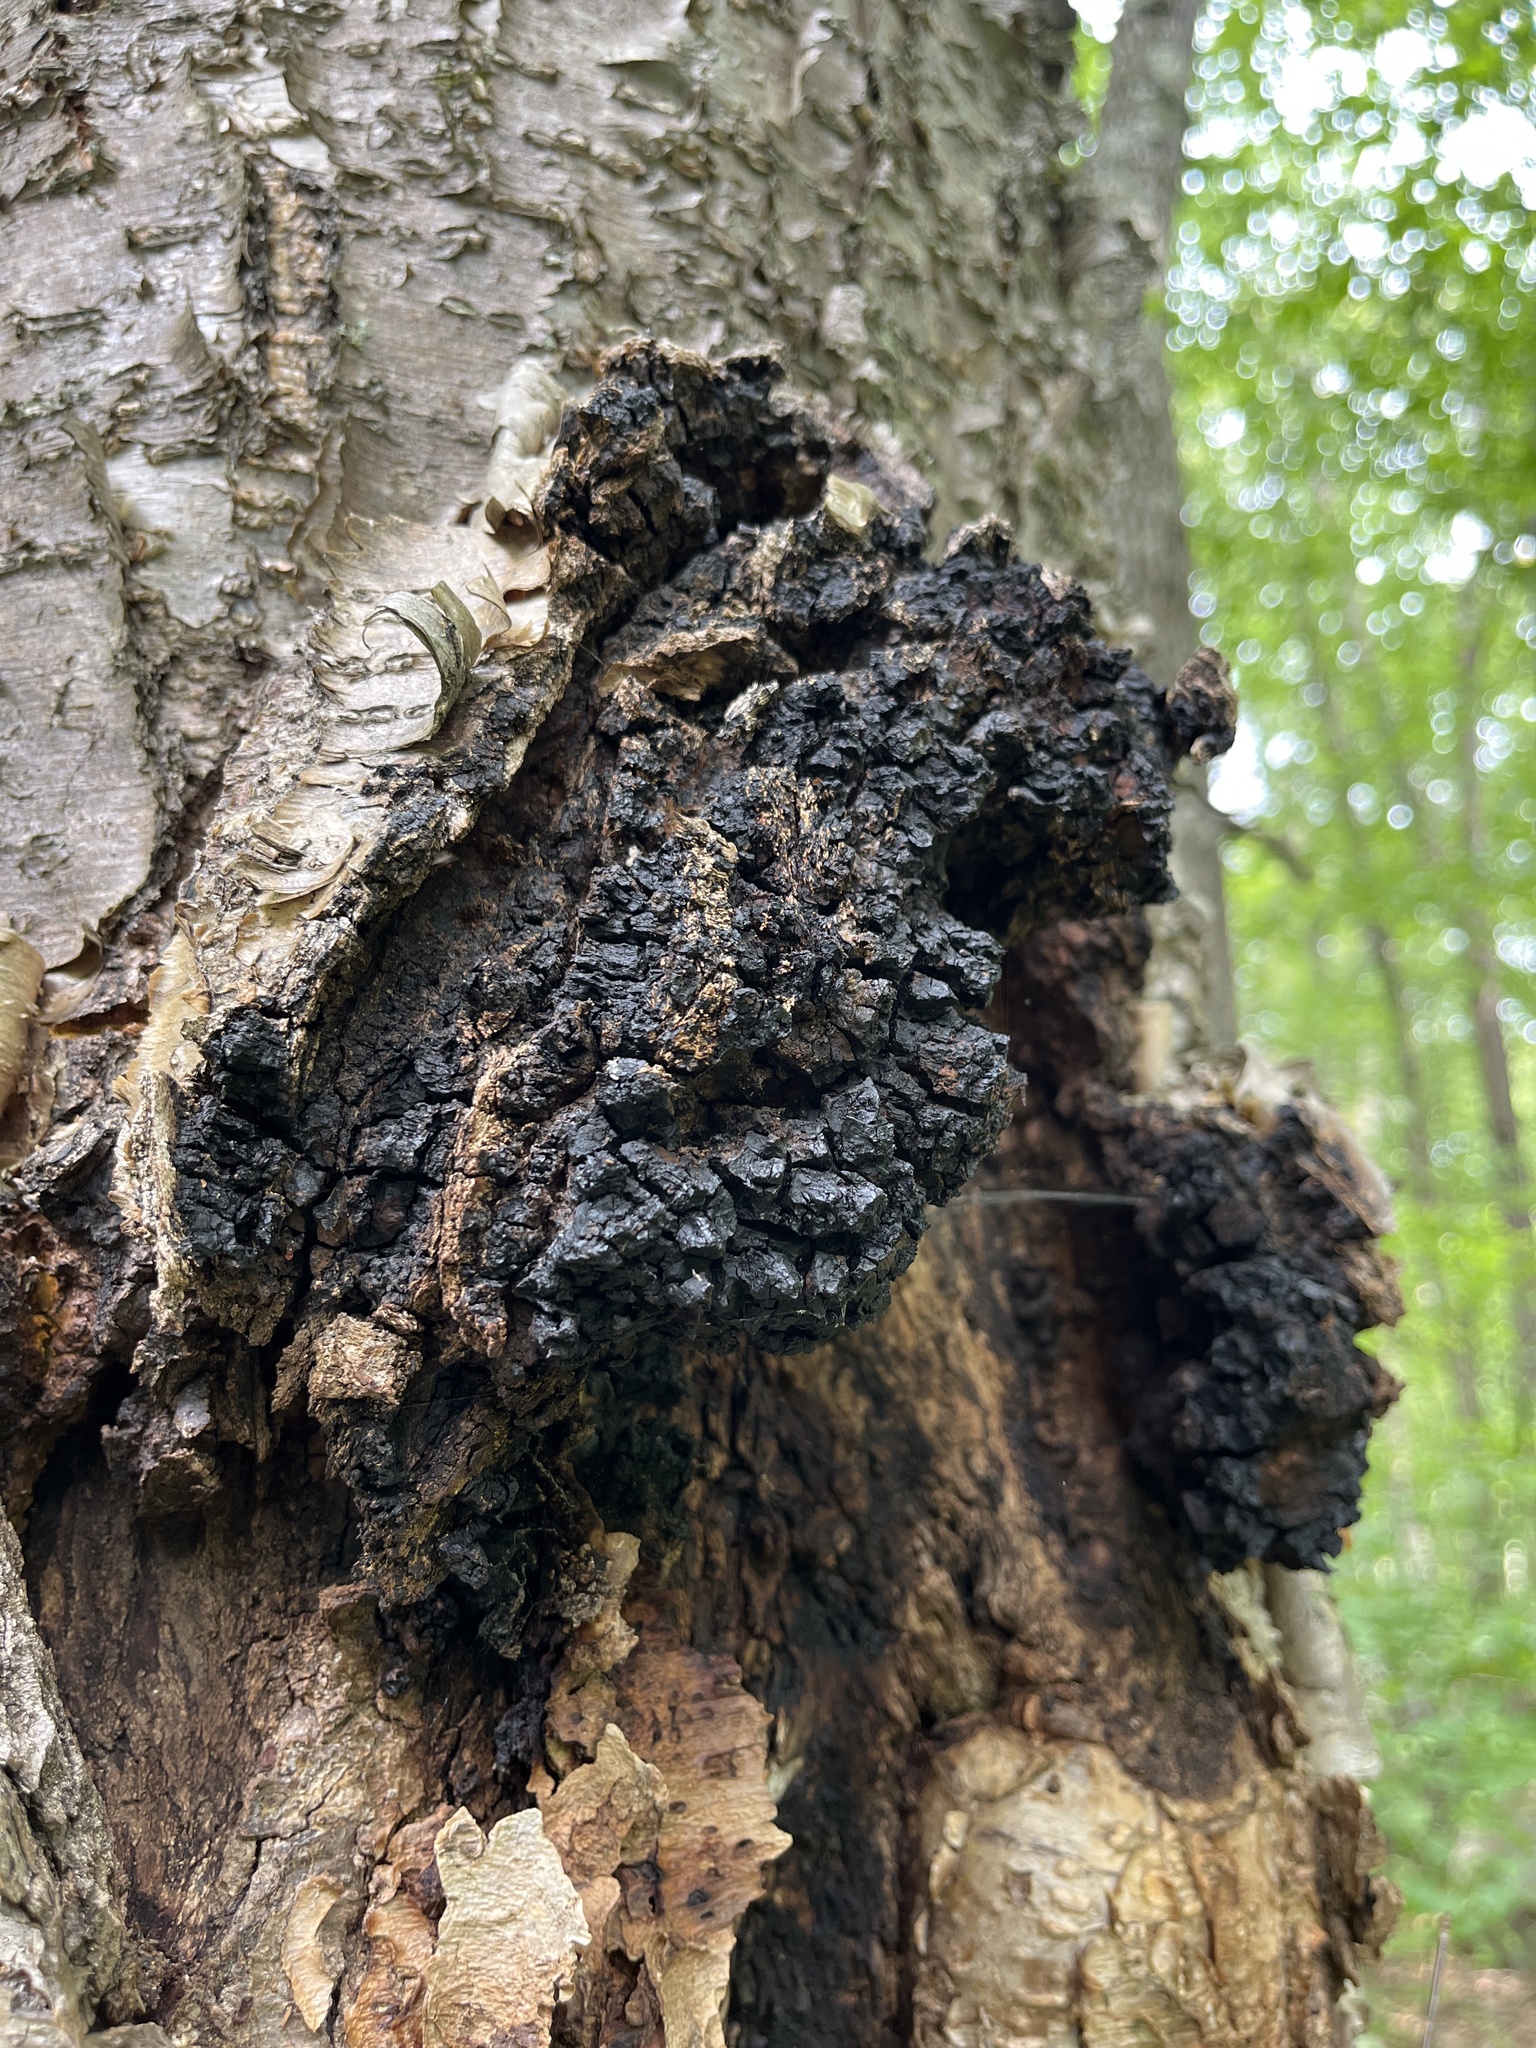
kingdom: Fungi
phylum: Basidiomycota
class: Agaricomycetes
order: Hymenochaetales
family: Hymenochaetaceae
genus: Inonotus
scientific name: Inonotus obliquus
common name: Chaga
